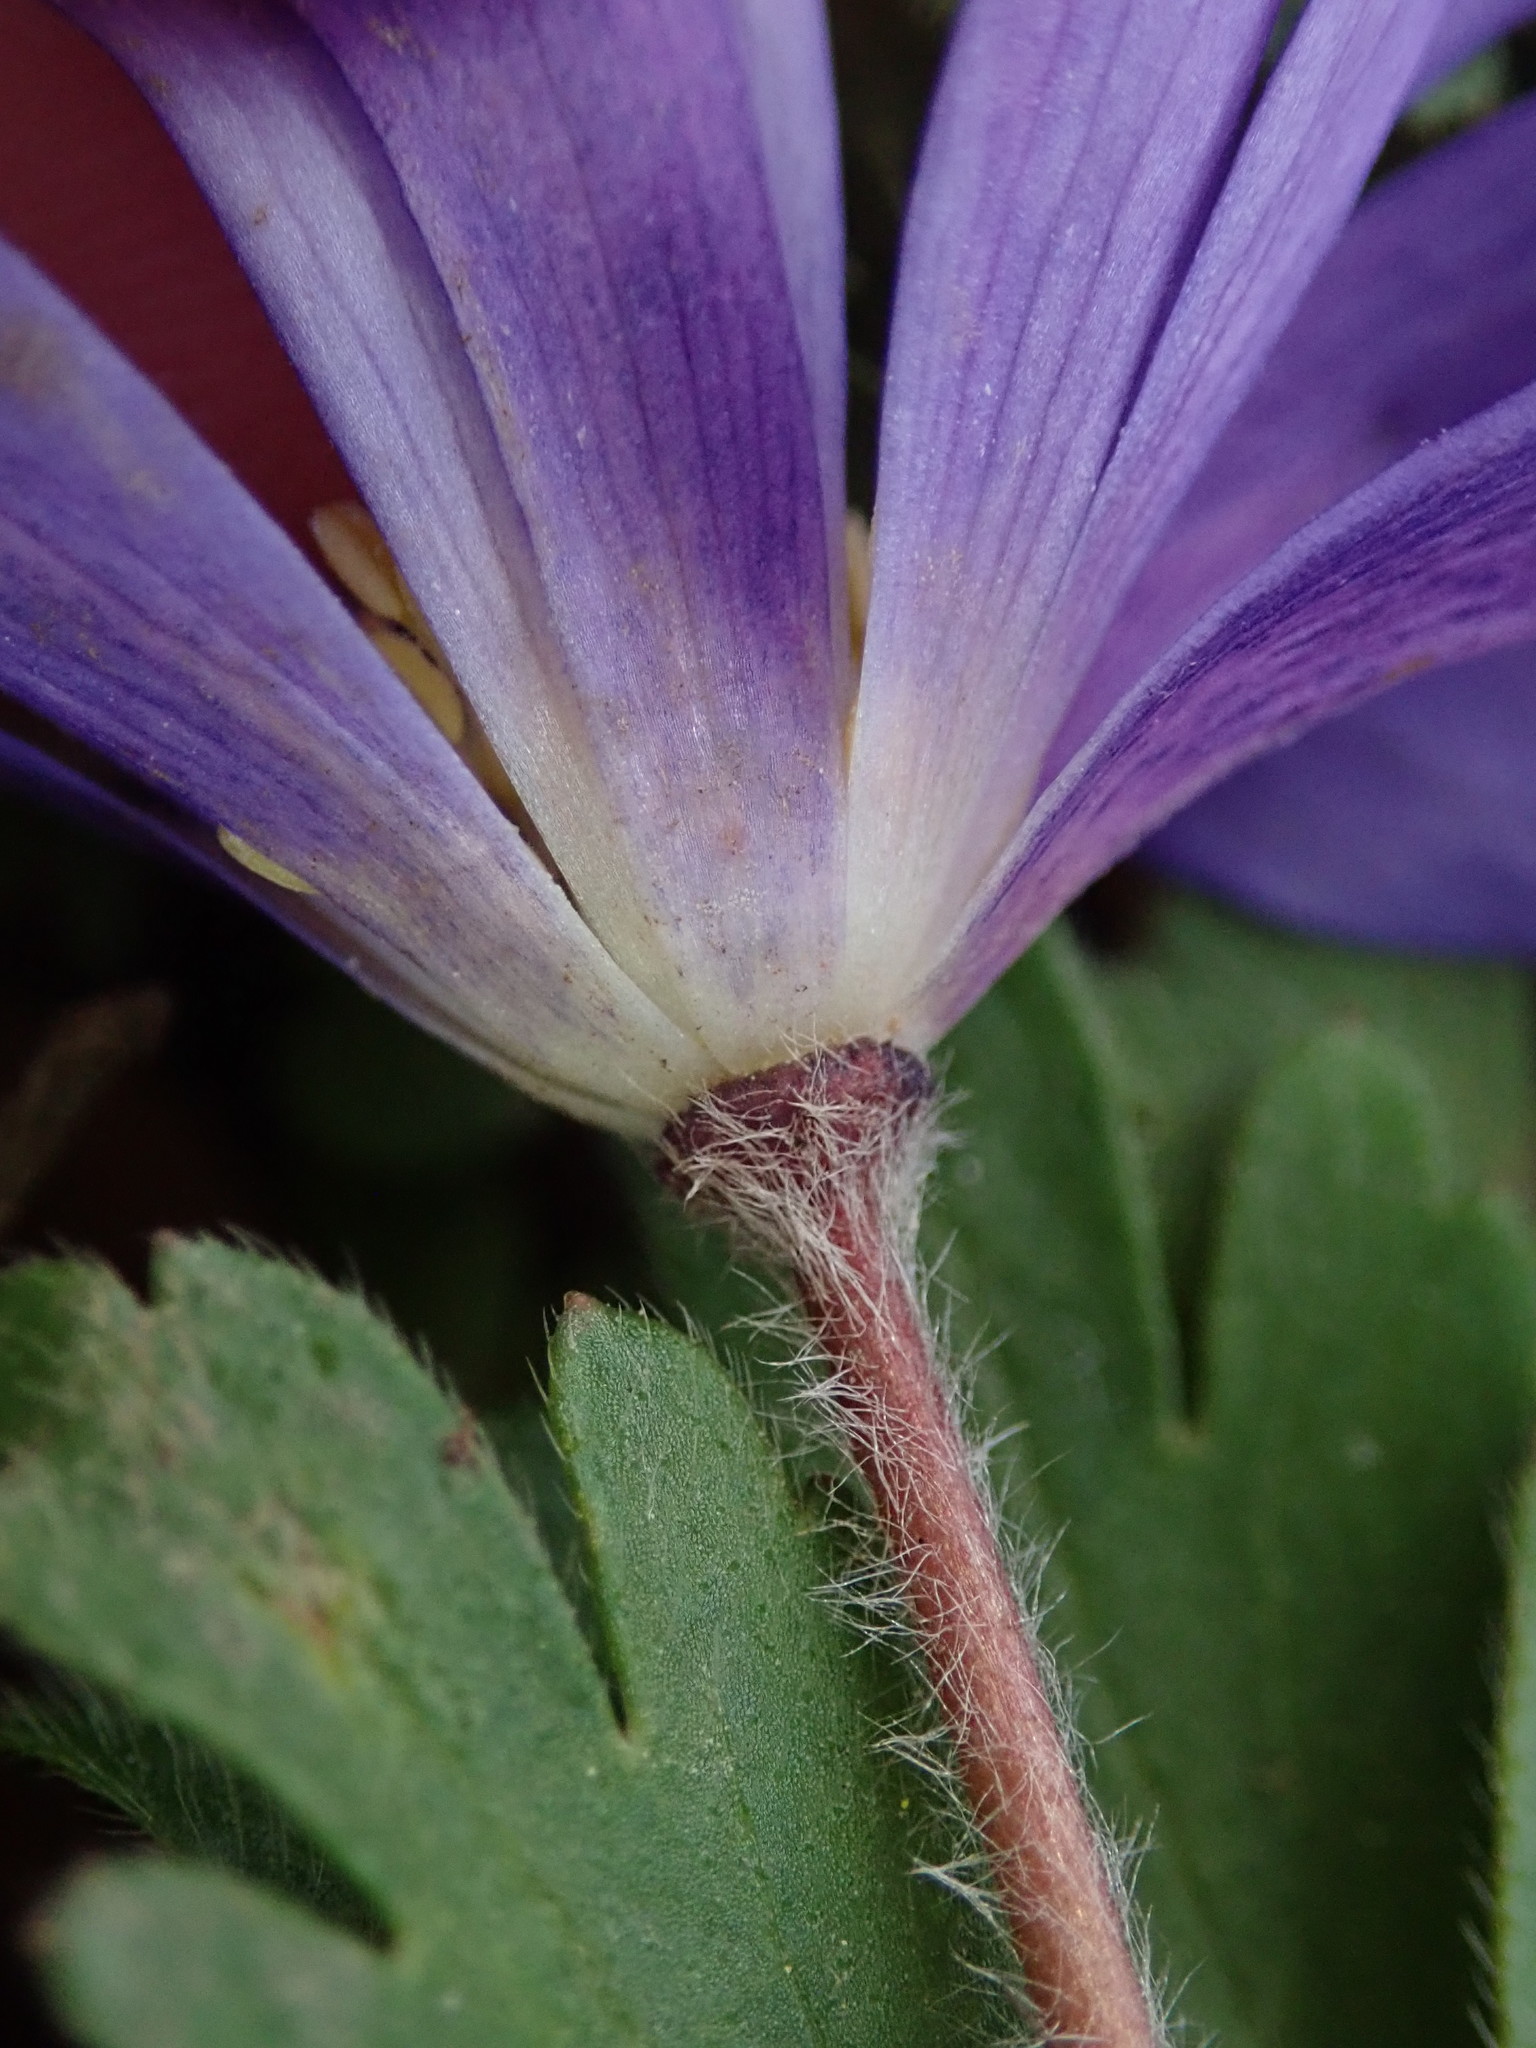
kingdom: Plantae
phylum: Tracheophyta
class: Magnoliopsida
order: Ranunculales
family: Ranunculaceae
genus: Anemone
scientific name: Anemone blanda
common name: Balkan anemone
